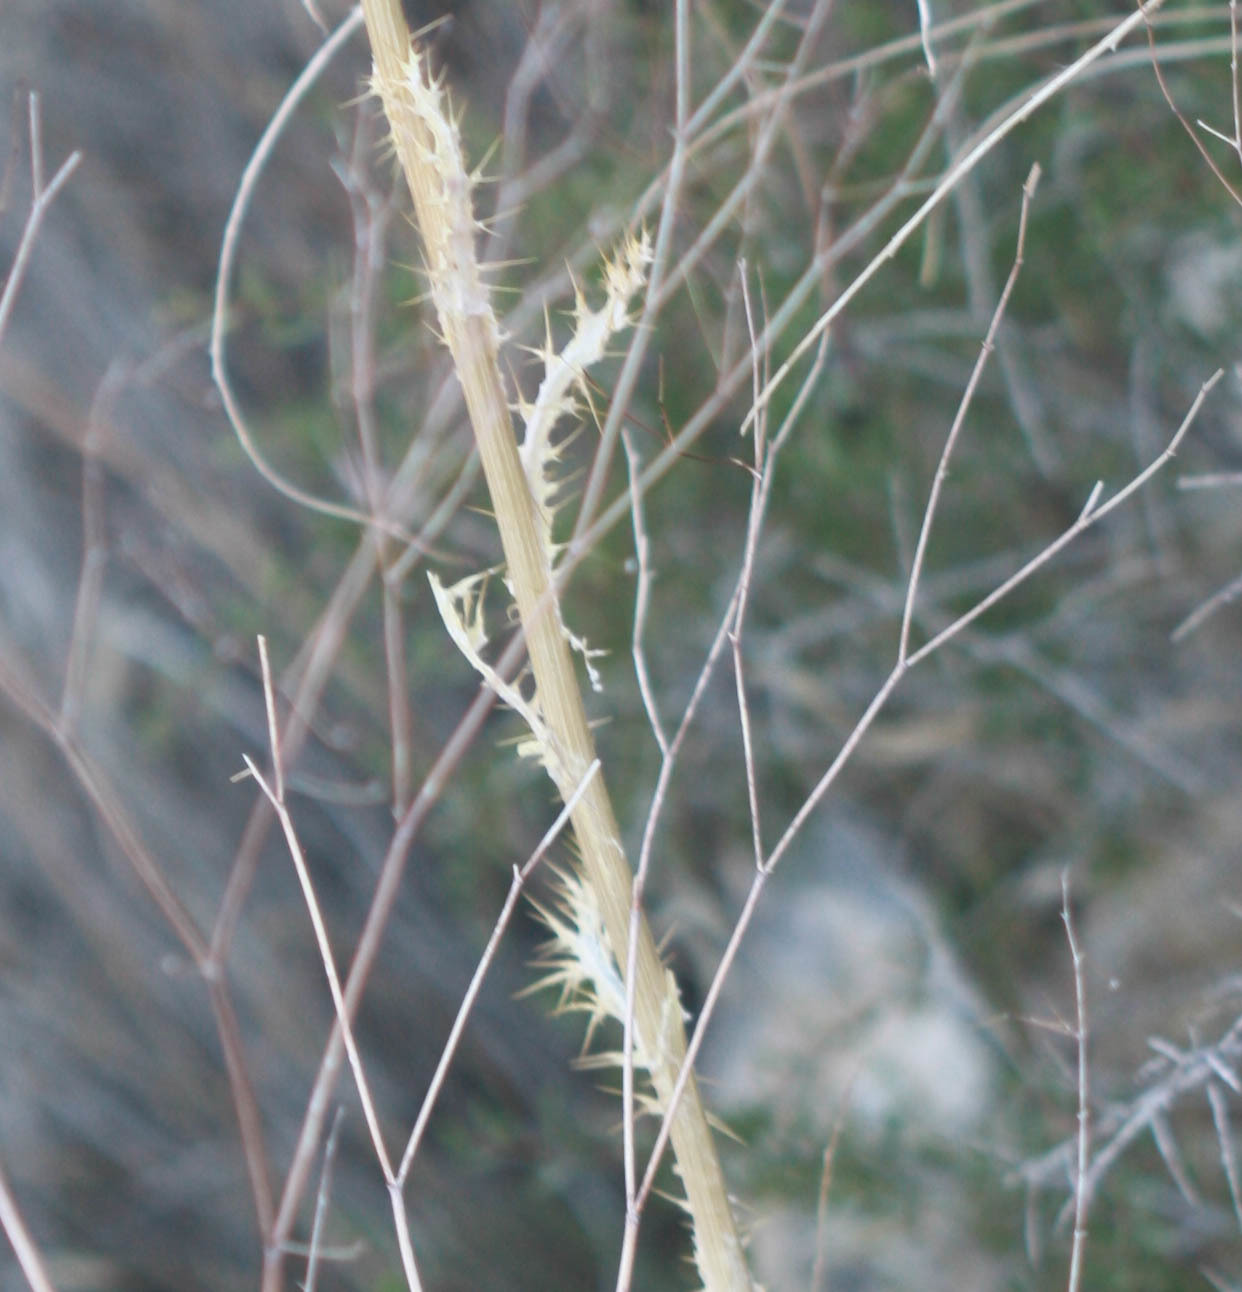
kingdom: Plantae
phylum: Tracheophyta
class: Magnoliopsida
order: Asterales
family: Asteraceae
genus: Cirsium
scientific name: Cirsium mohavense
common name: Mojave thistle
